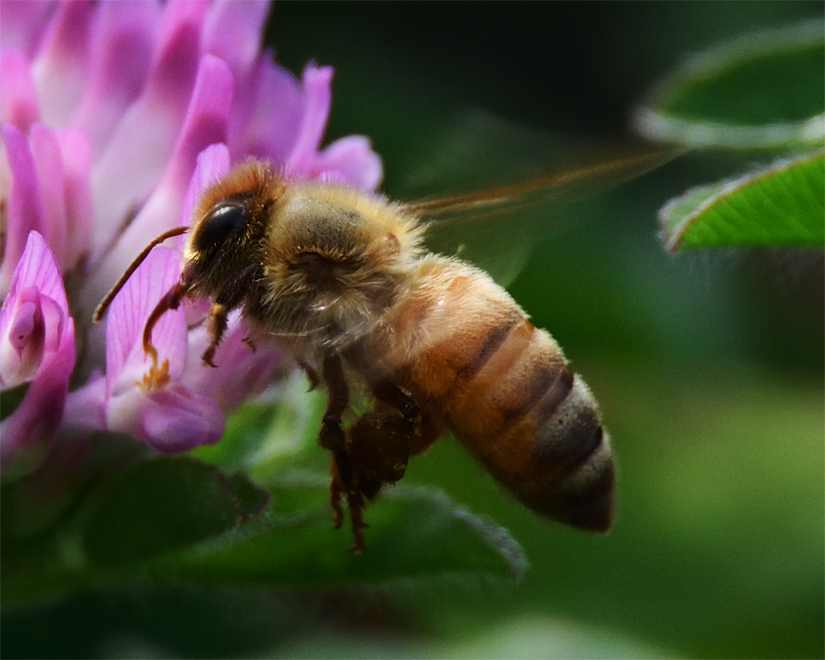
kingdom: Animalia
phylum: Arthropoda
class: Insecta
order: Hymenoptera
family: Apidae
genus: Apis
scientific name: Apis mellifera
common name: Honey bee
